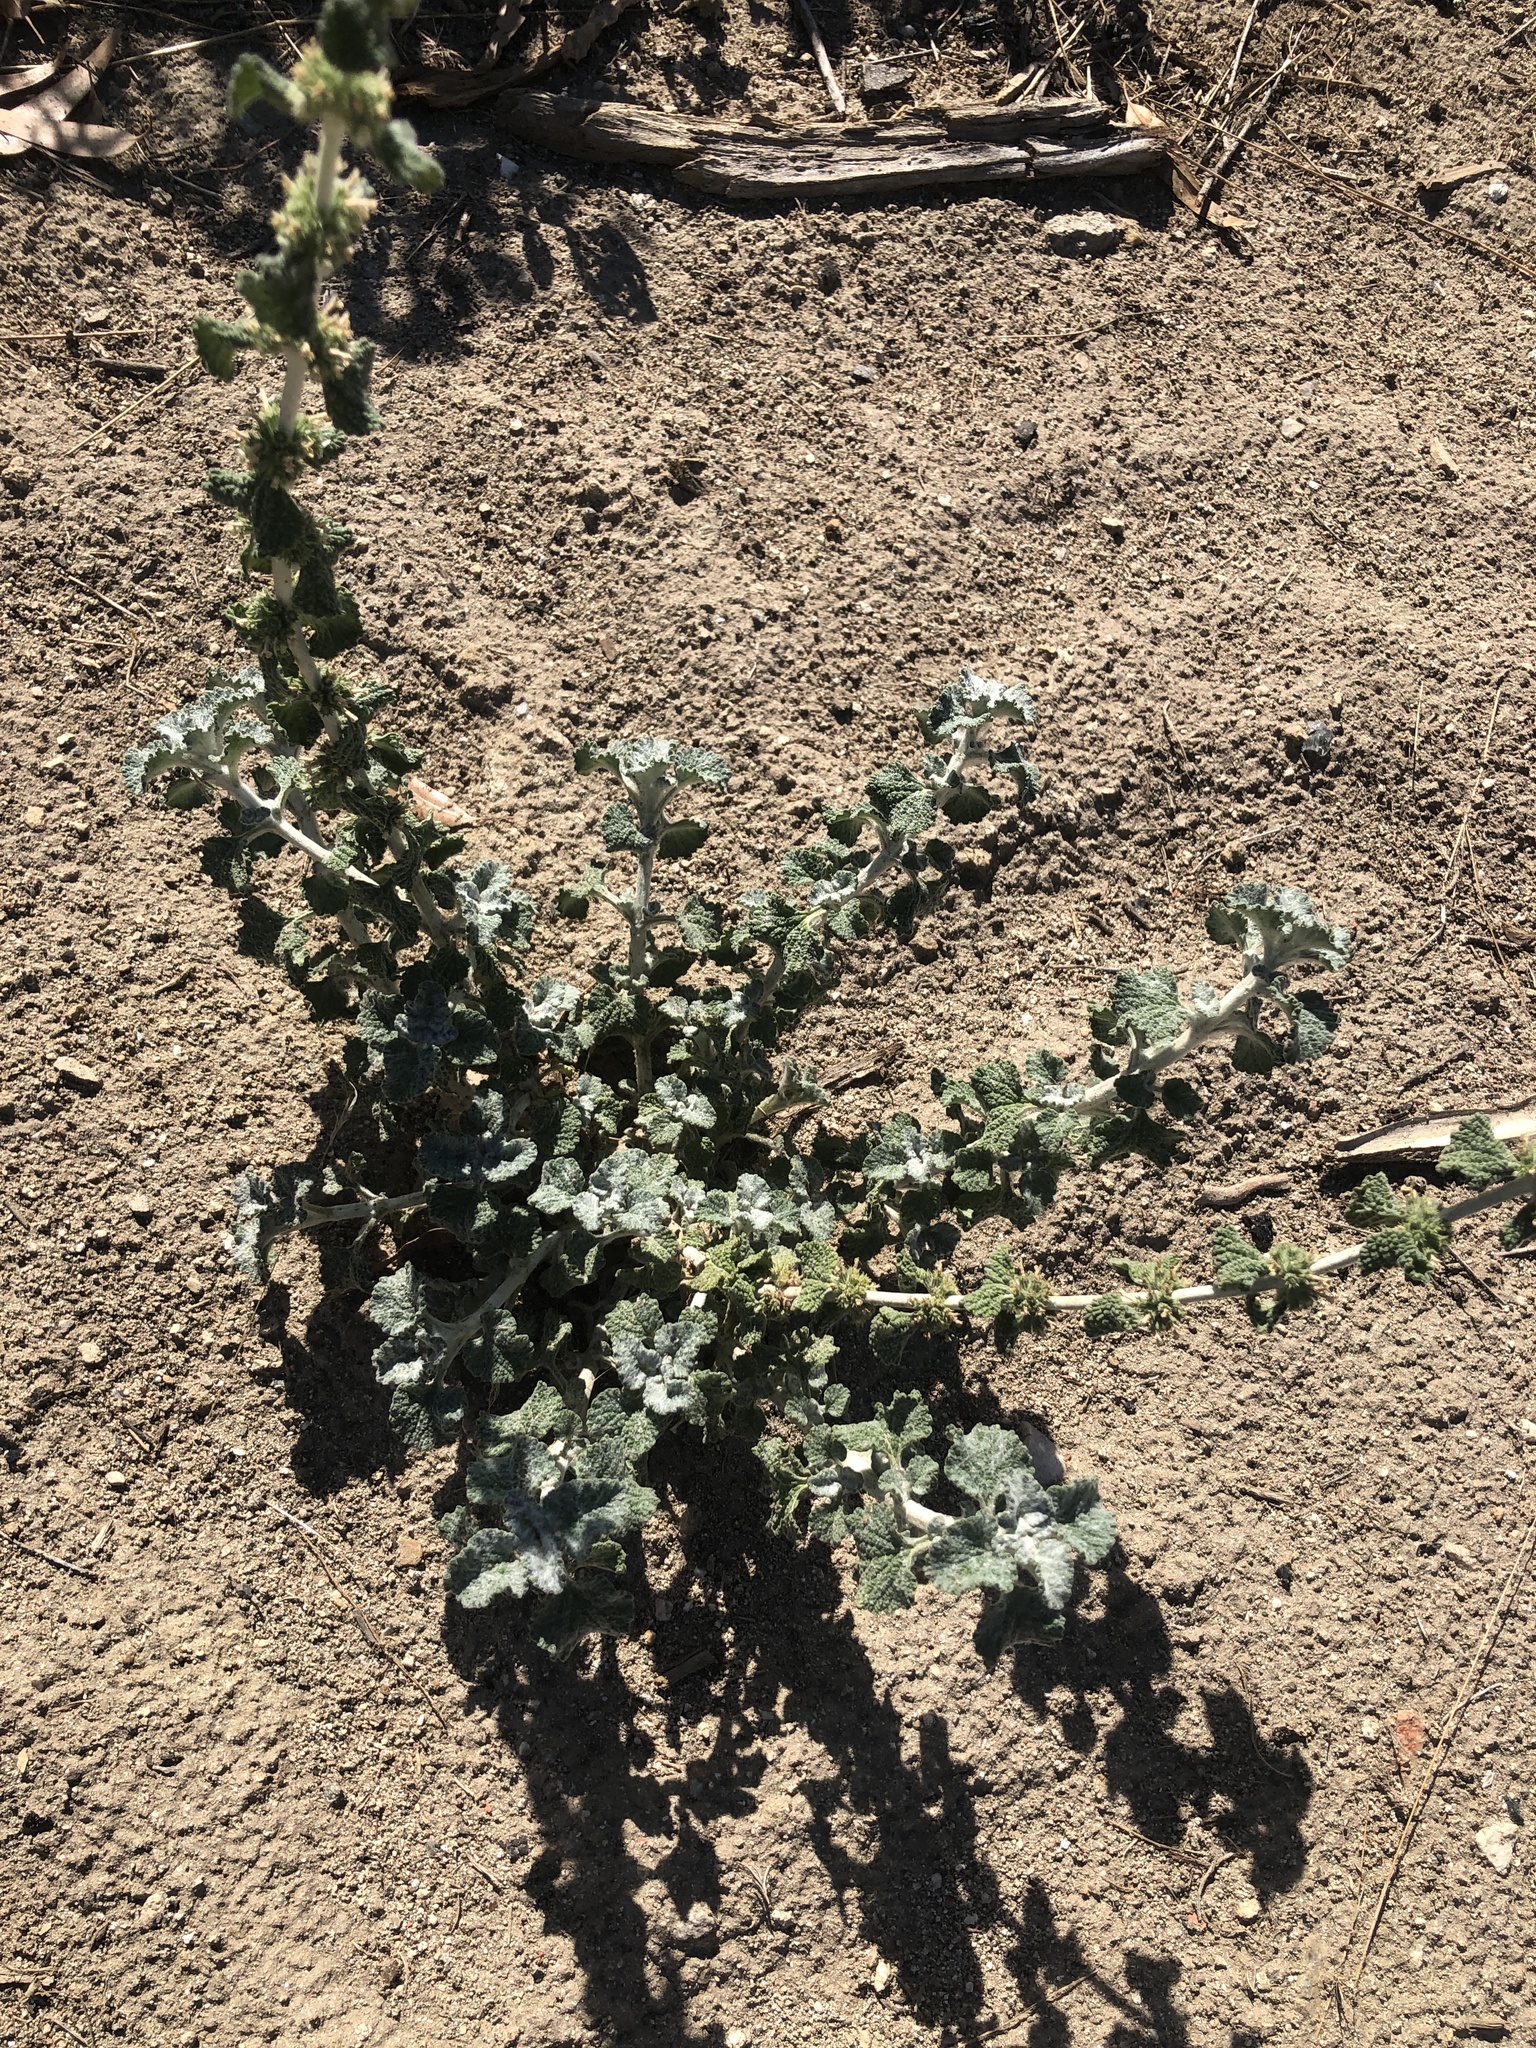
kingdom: Plantae
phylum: Tracheophyta
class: Magnoliopsida
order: Lamiales
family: Lamiaceae
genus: Marrubium
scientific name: Marrubium vulgare
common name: Horehound
